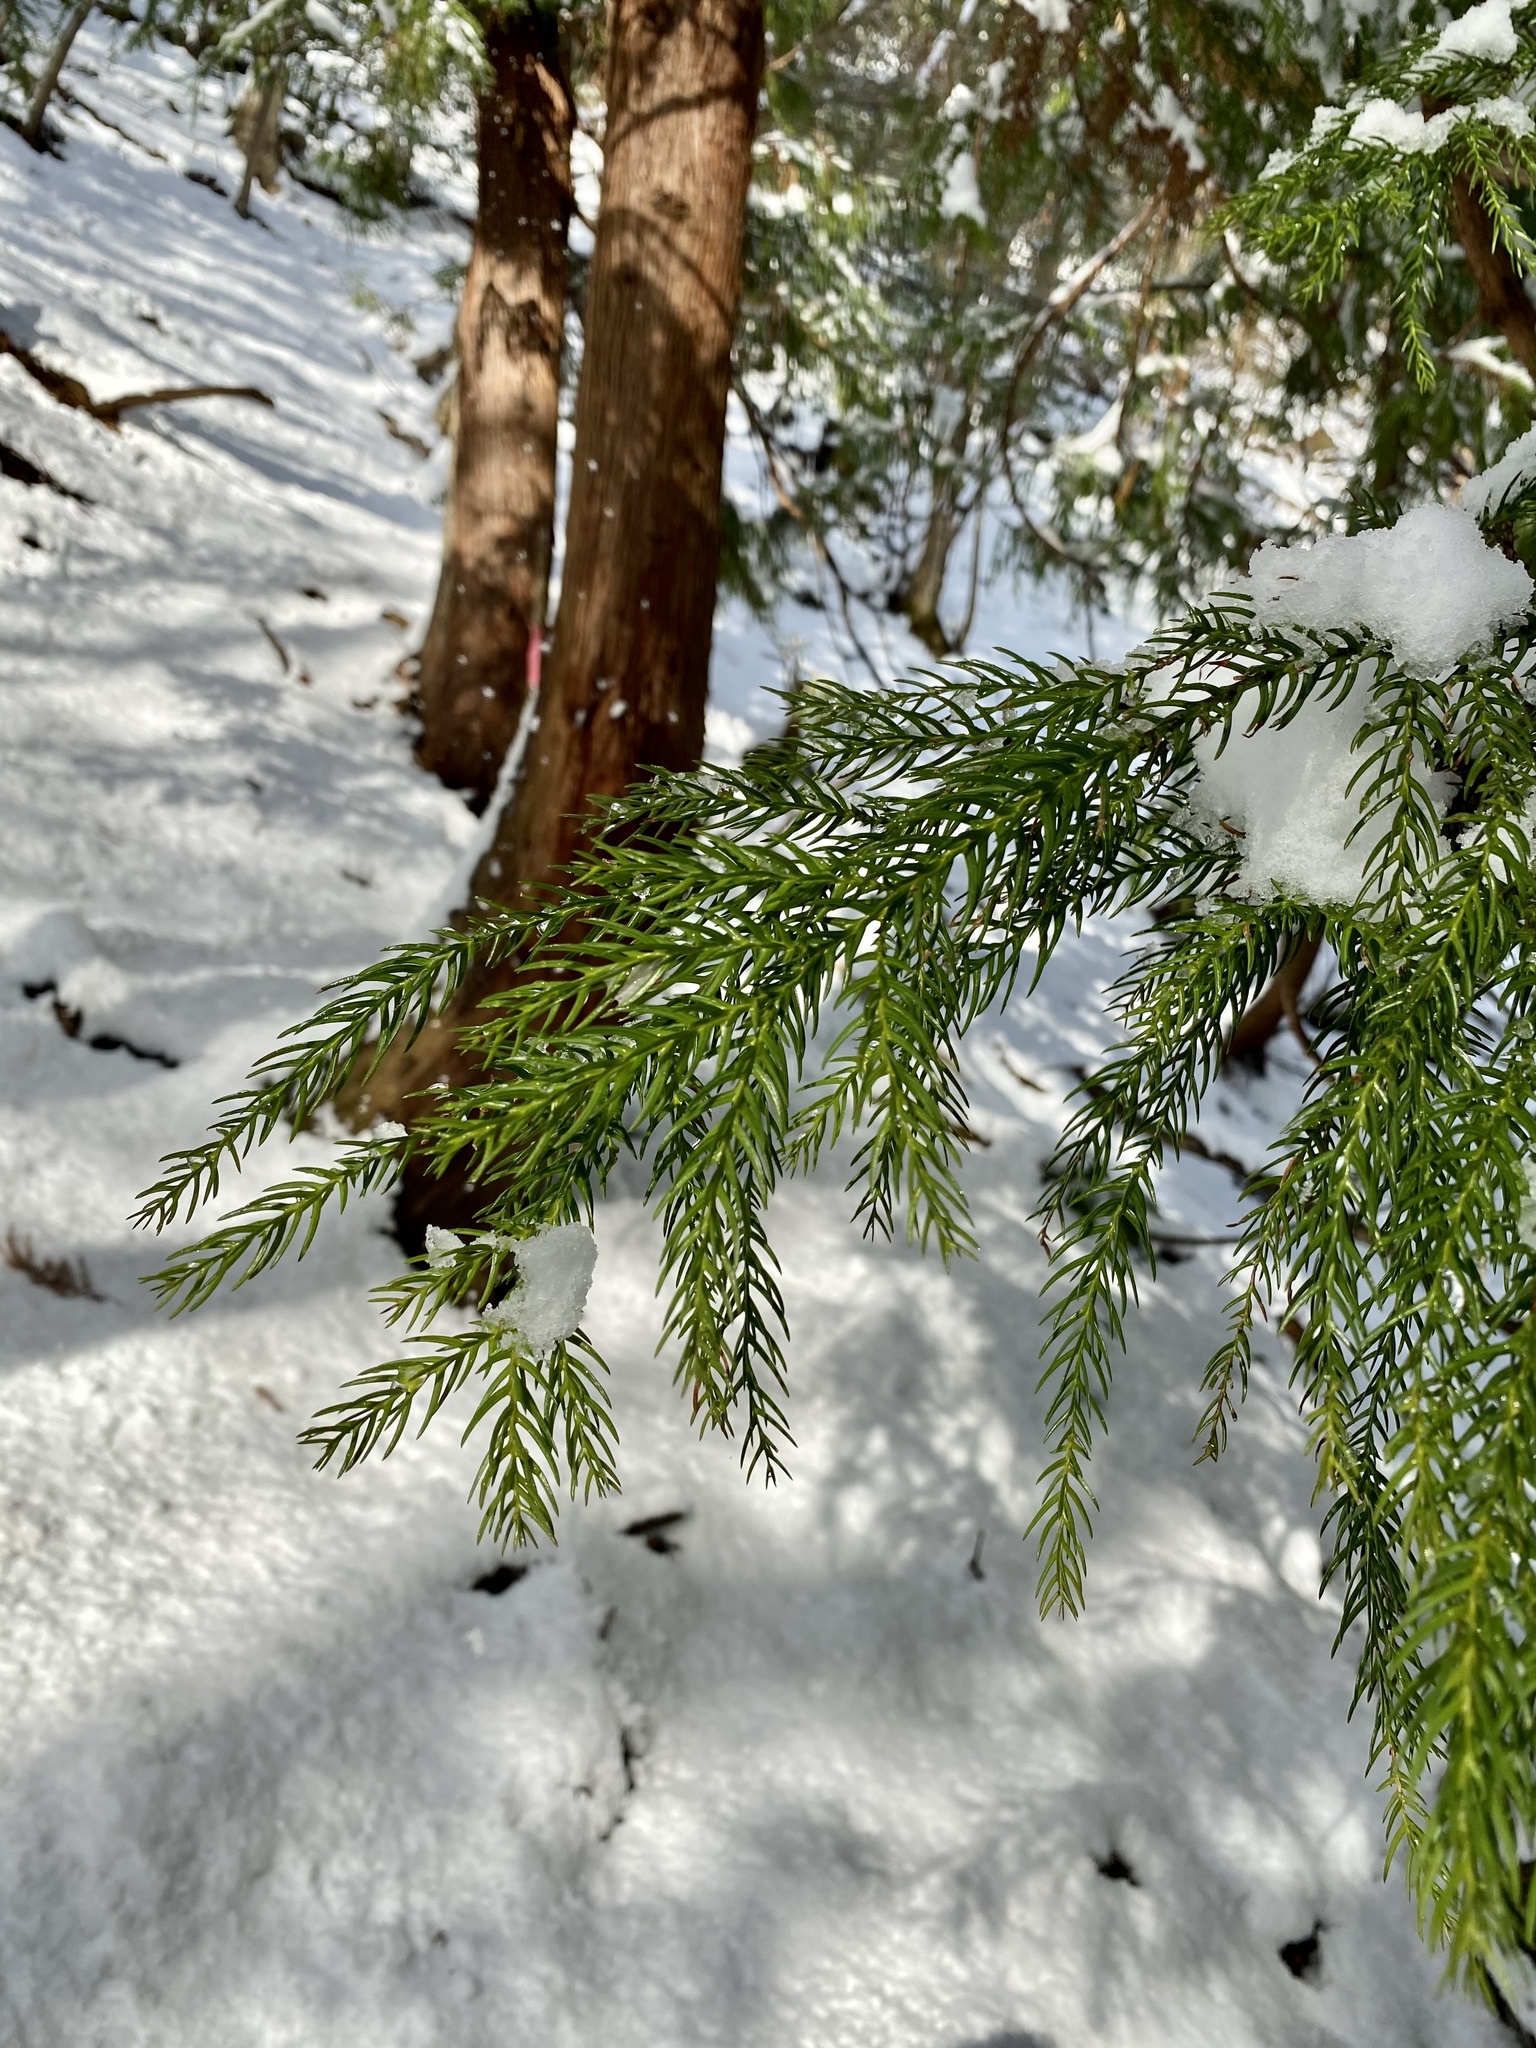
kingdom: Plantae
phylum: Tracheophyta
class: Pinopsida
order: Pinales
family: Cupressaceae
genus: Cryptomeria
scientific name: Cryptomeria japonica
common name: Japanese cedar
